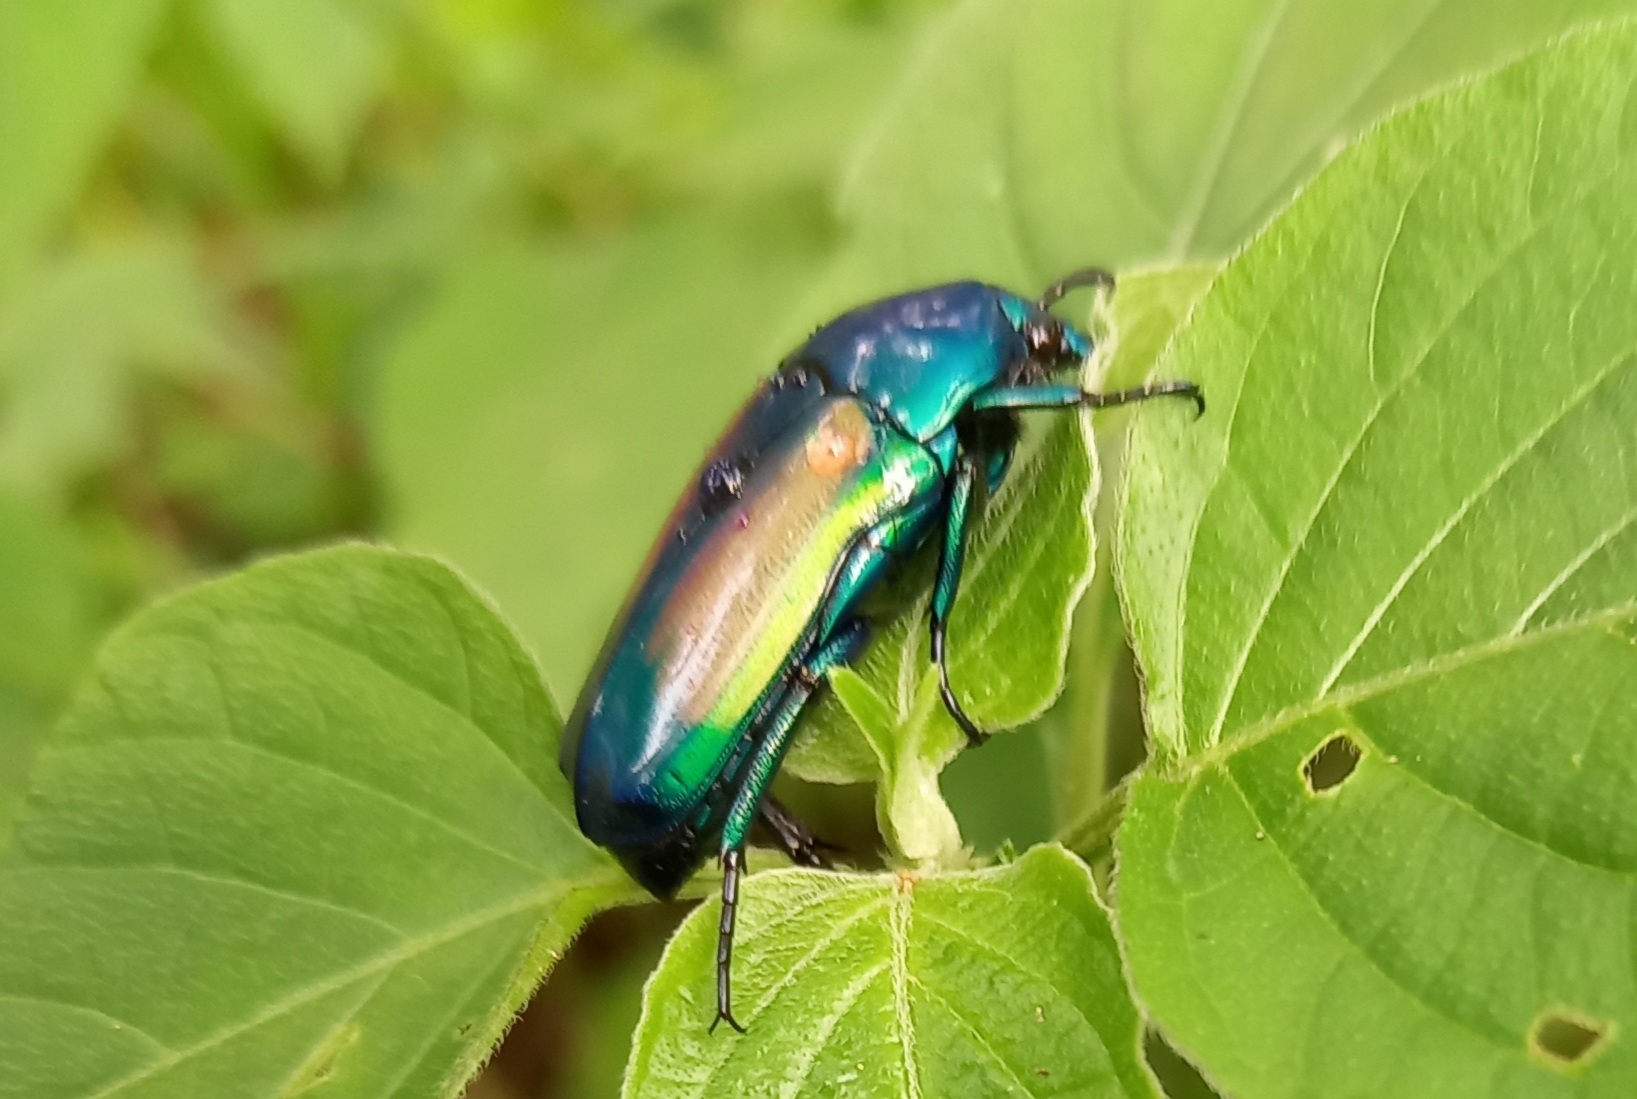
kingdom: Animalia
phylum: Arthropoda
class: Insecta
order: Coleoptera
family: Scarabaeidae
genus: Chlorocala
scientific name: Chlorocala africana
